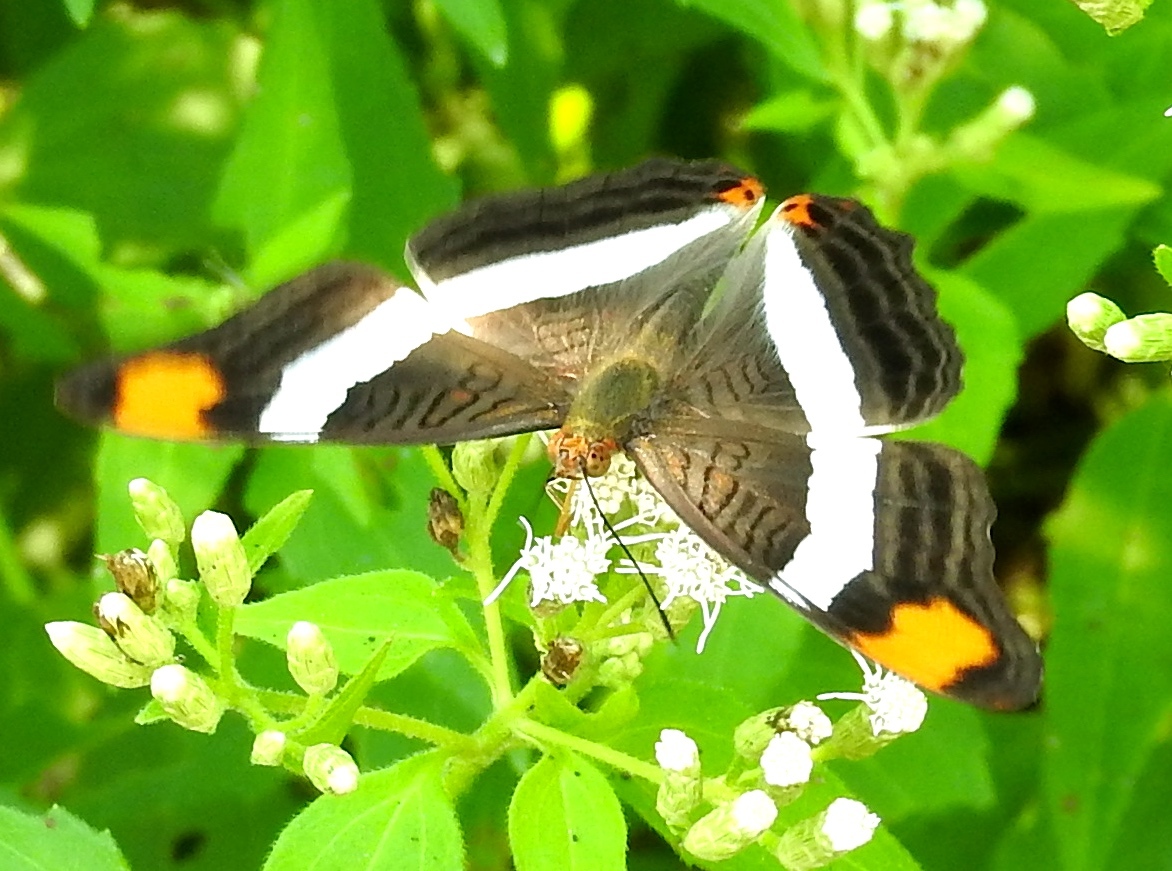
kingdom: Animalia
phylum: Arthropoda
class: Insecta
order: Lepidoptera
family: Nymphalidae
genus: Limenitis
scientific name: Limenitis fessonia
